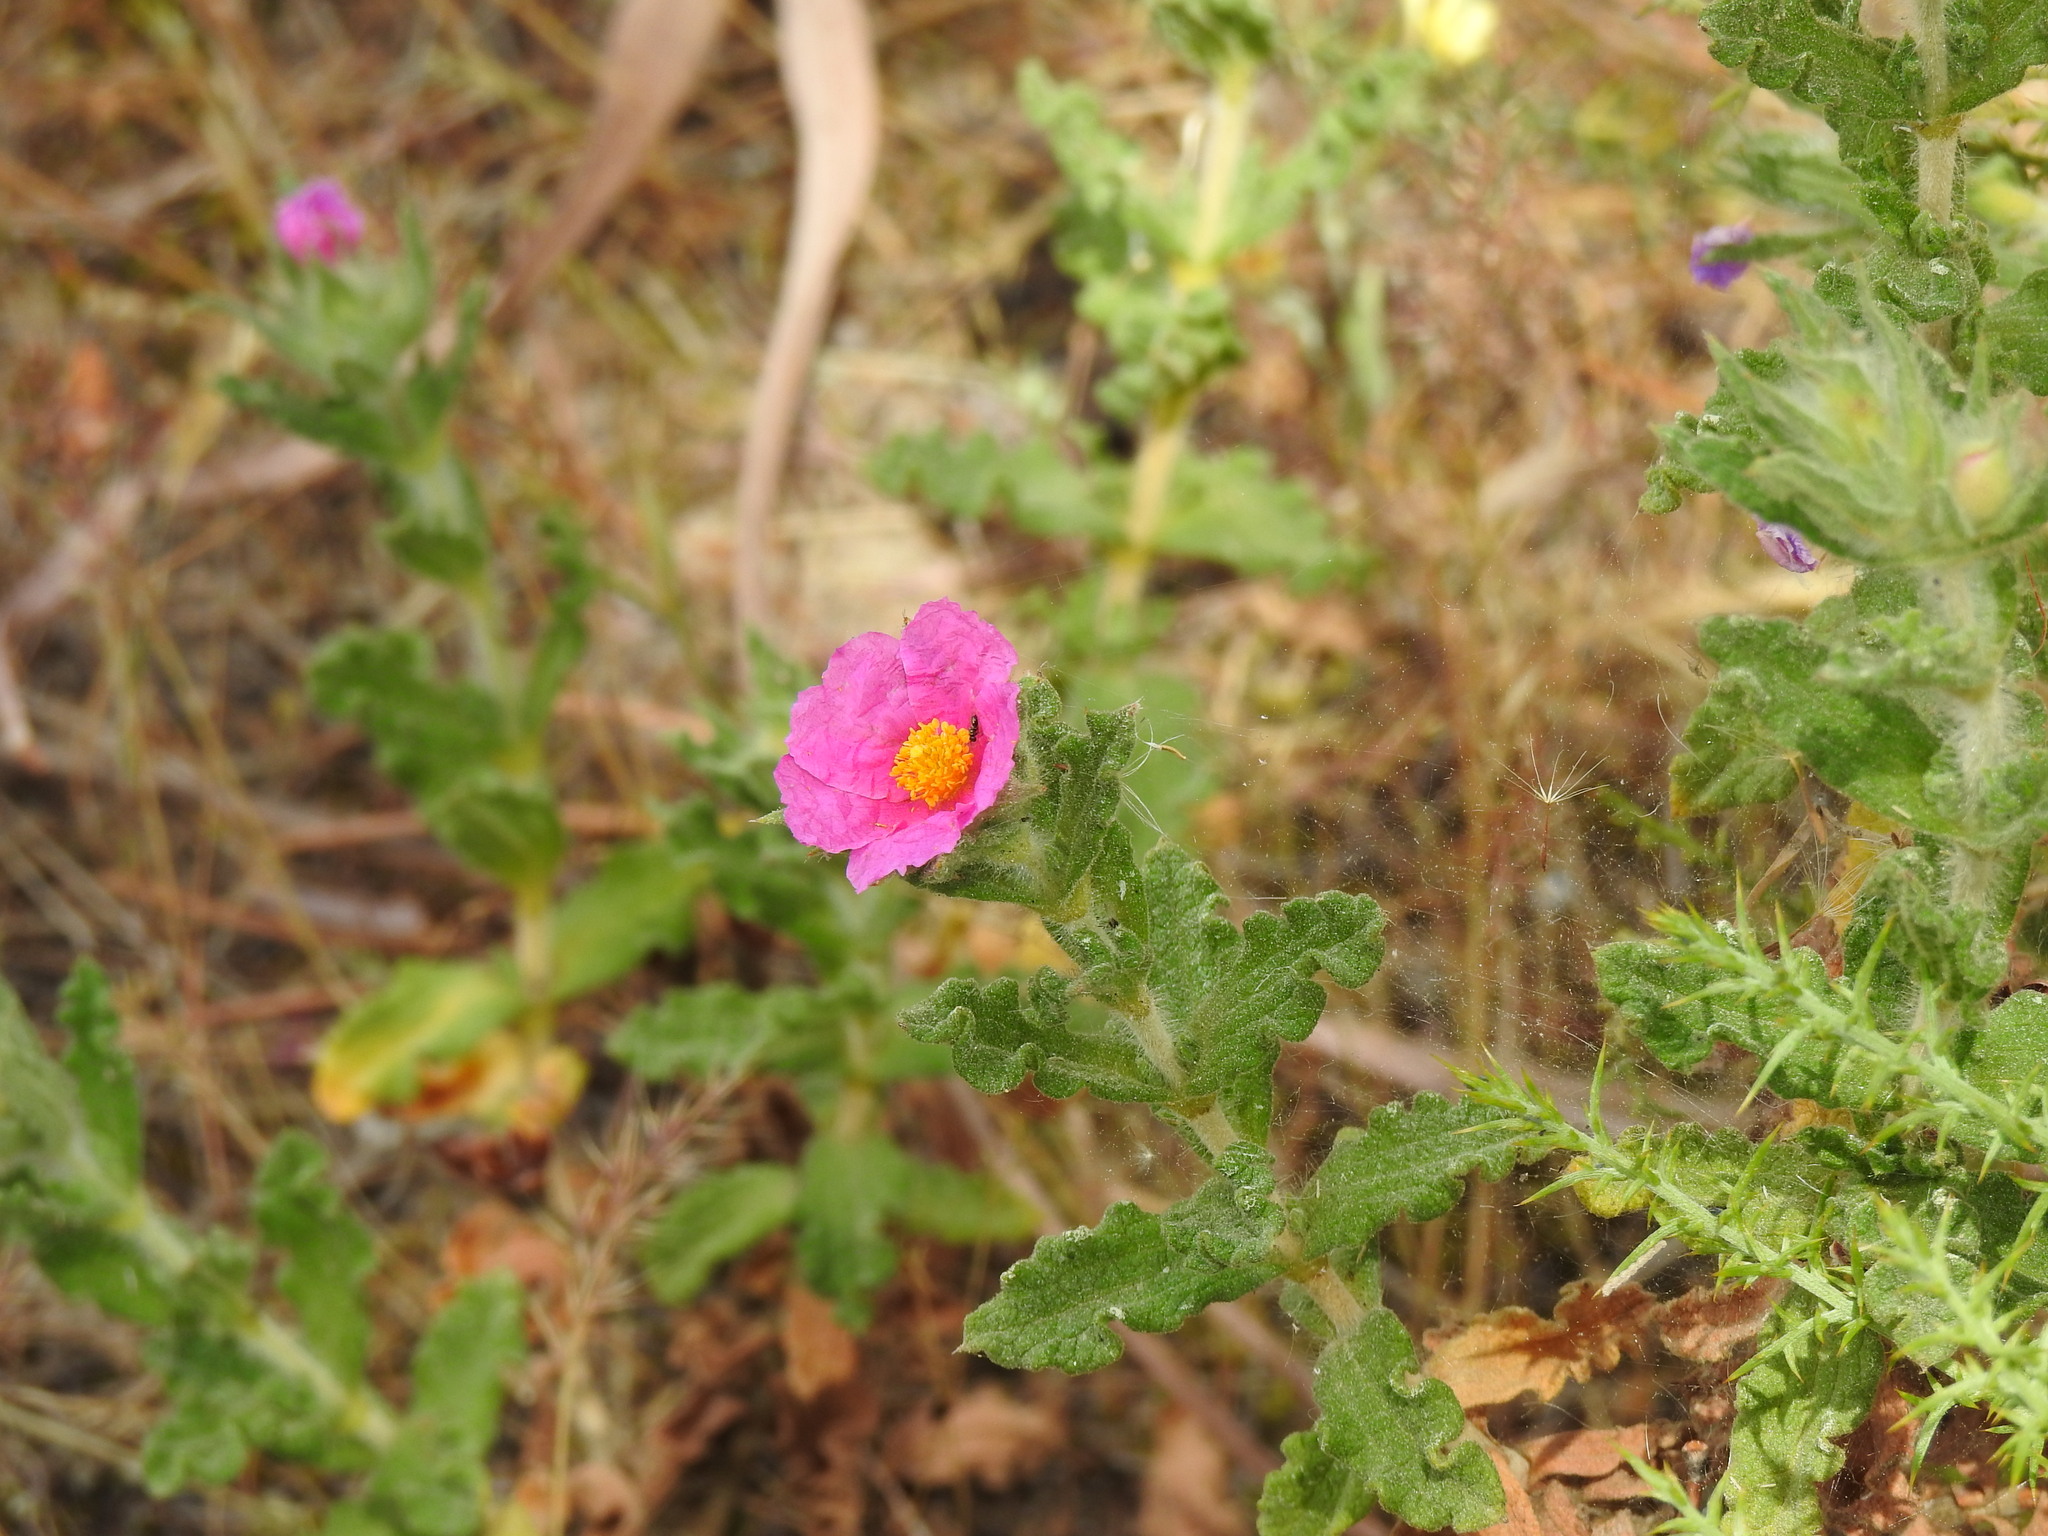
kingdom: Plantae
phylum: Tracheophyta
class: Magnoliopsida
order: Malvales
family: Cistaceae
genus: Cistus
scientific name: Cistus crispus
